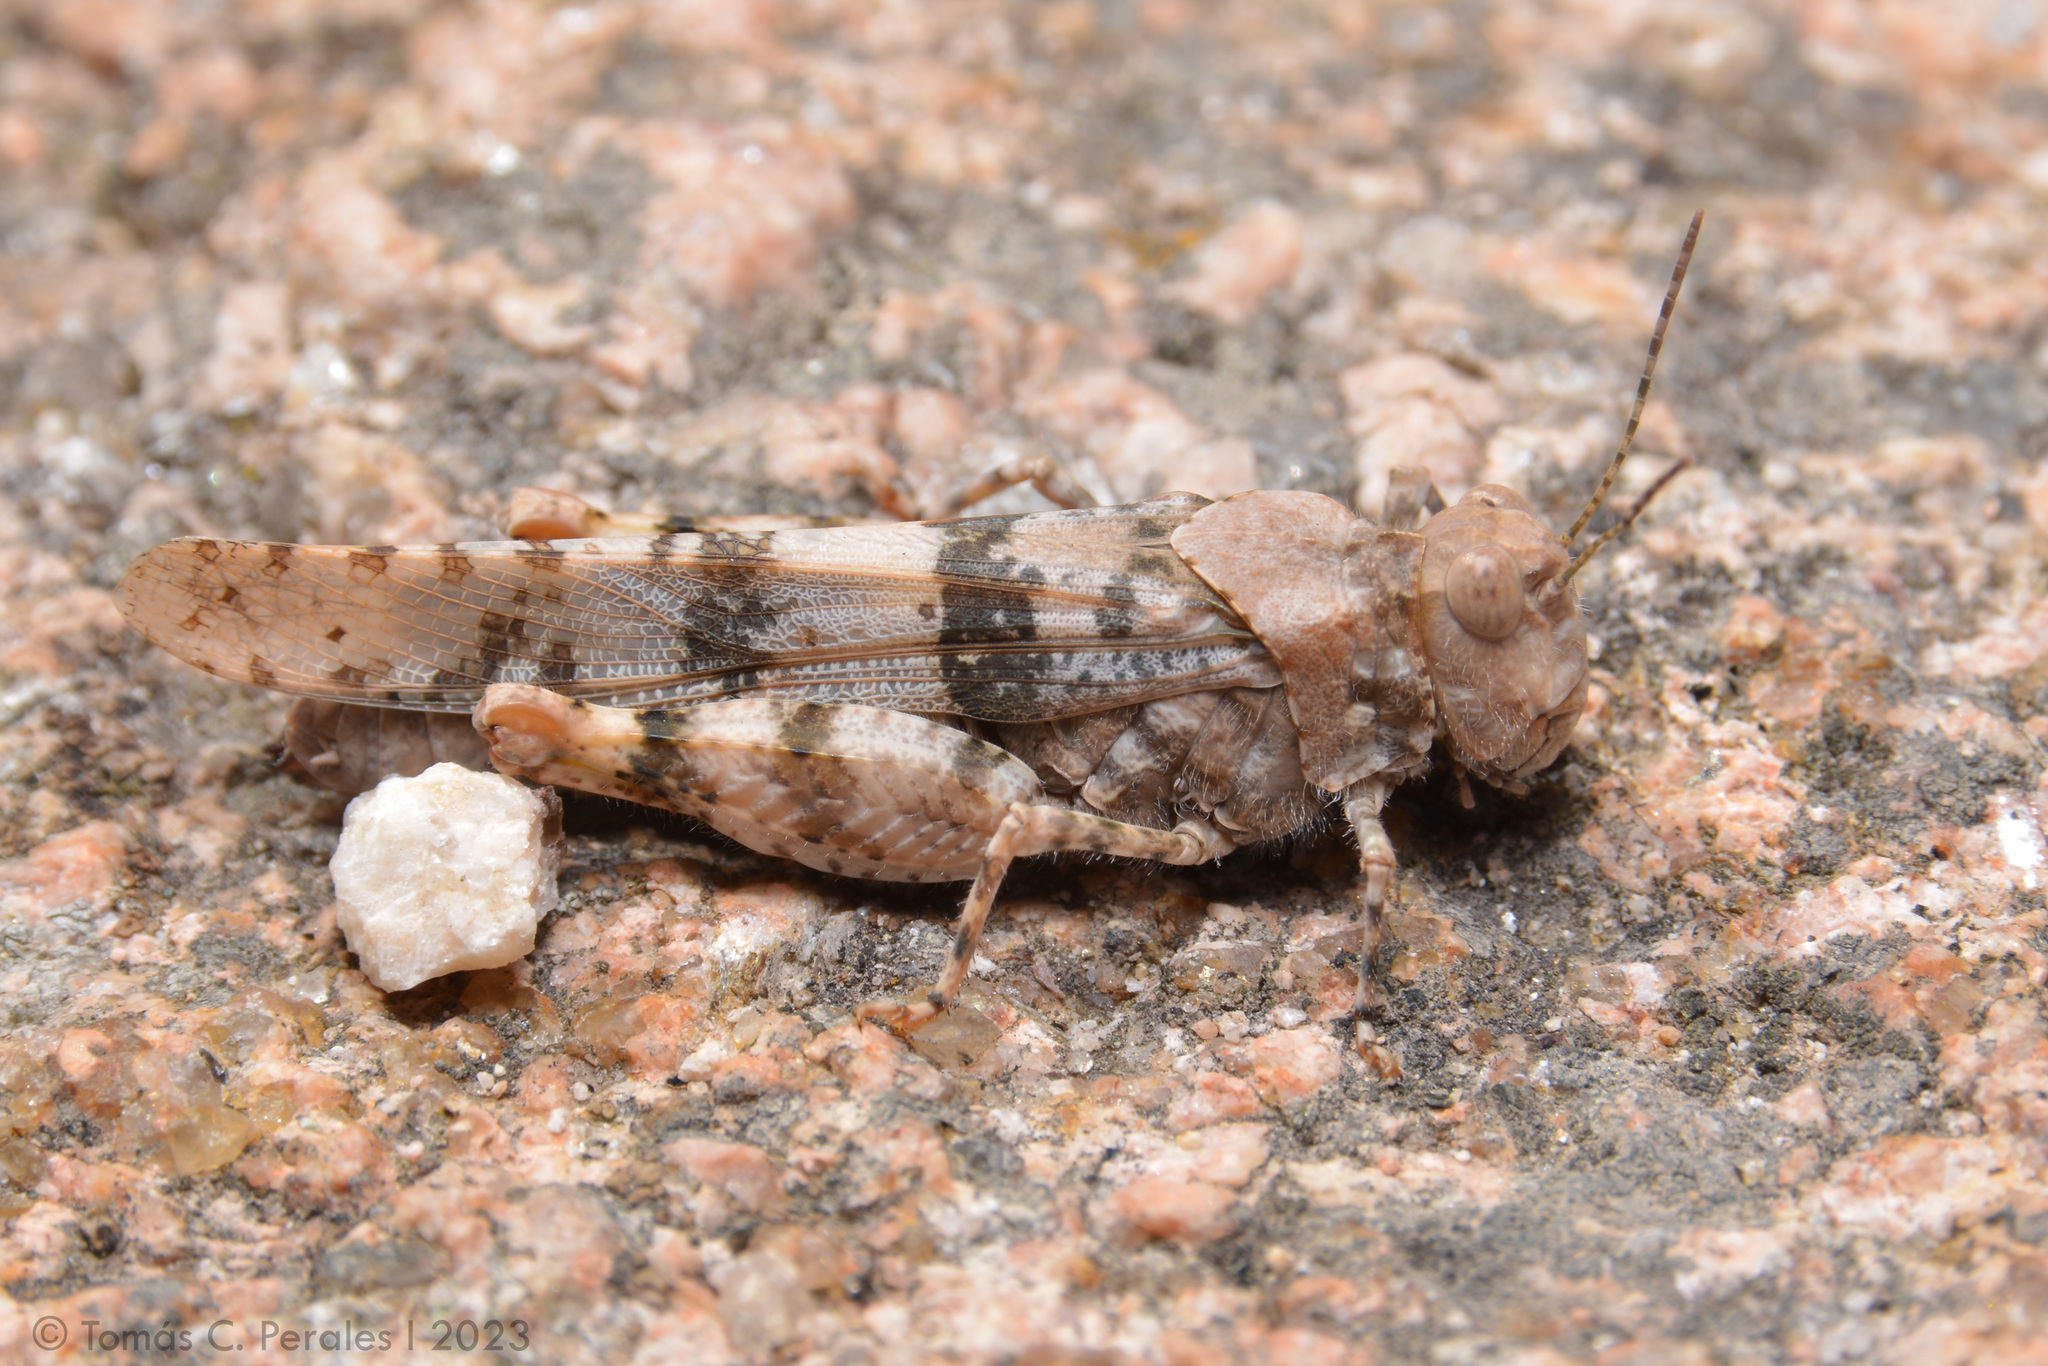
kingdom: Animalia
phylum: Arthropoda
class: Insecta
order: Orthoptera
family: Acrididae
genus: Trimerotropis
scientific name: Trimerotropis pallidipennis
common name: Pallid-winged grasshopper
